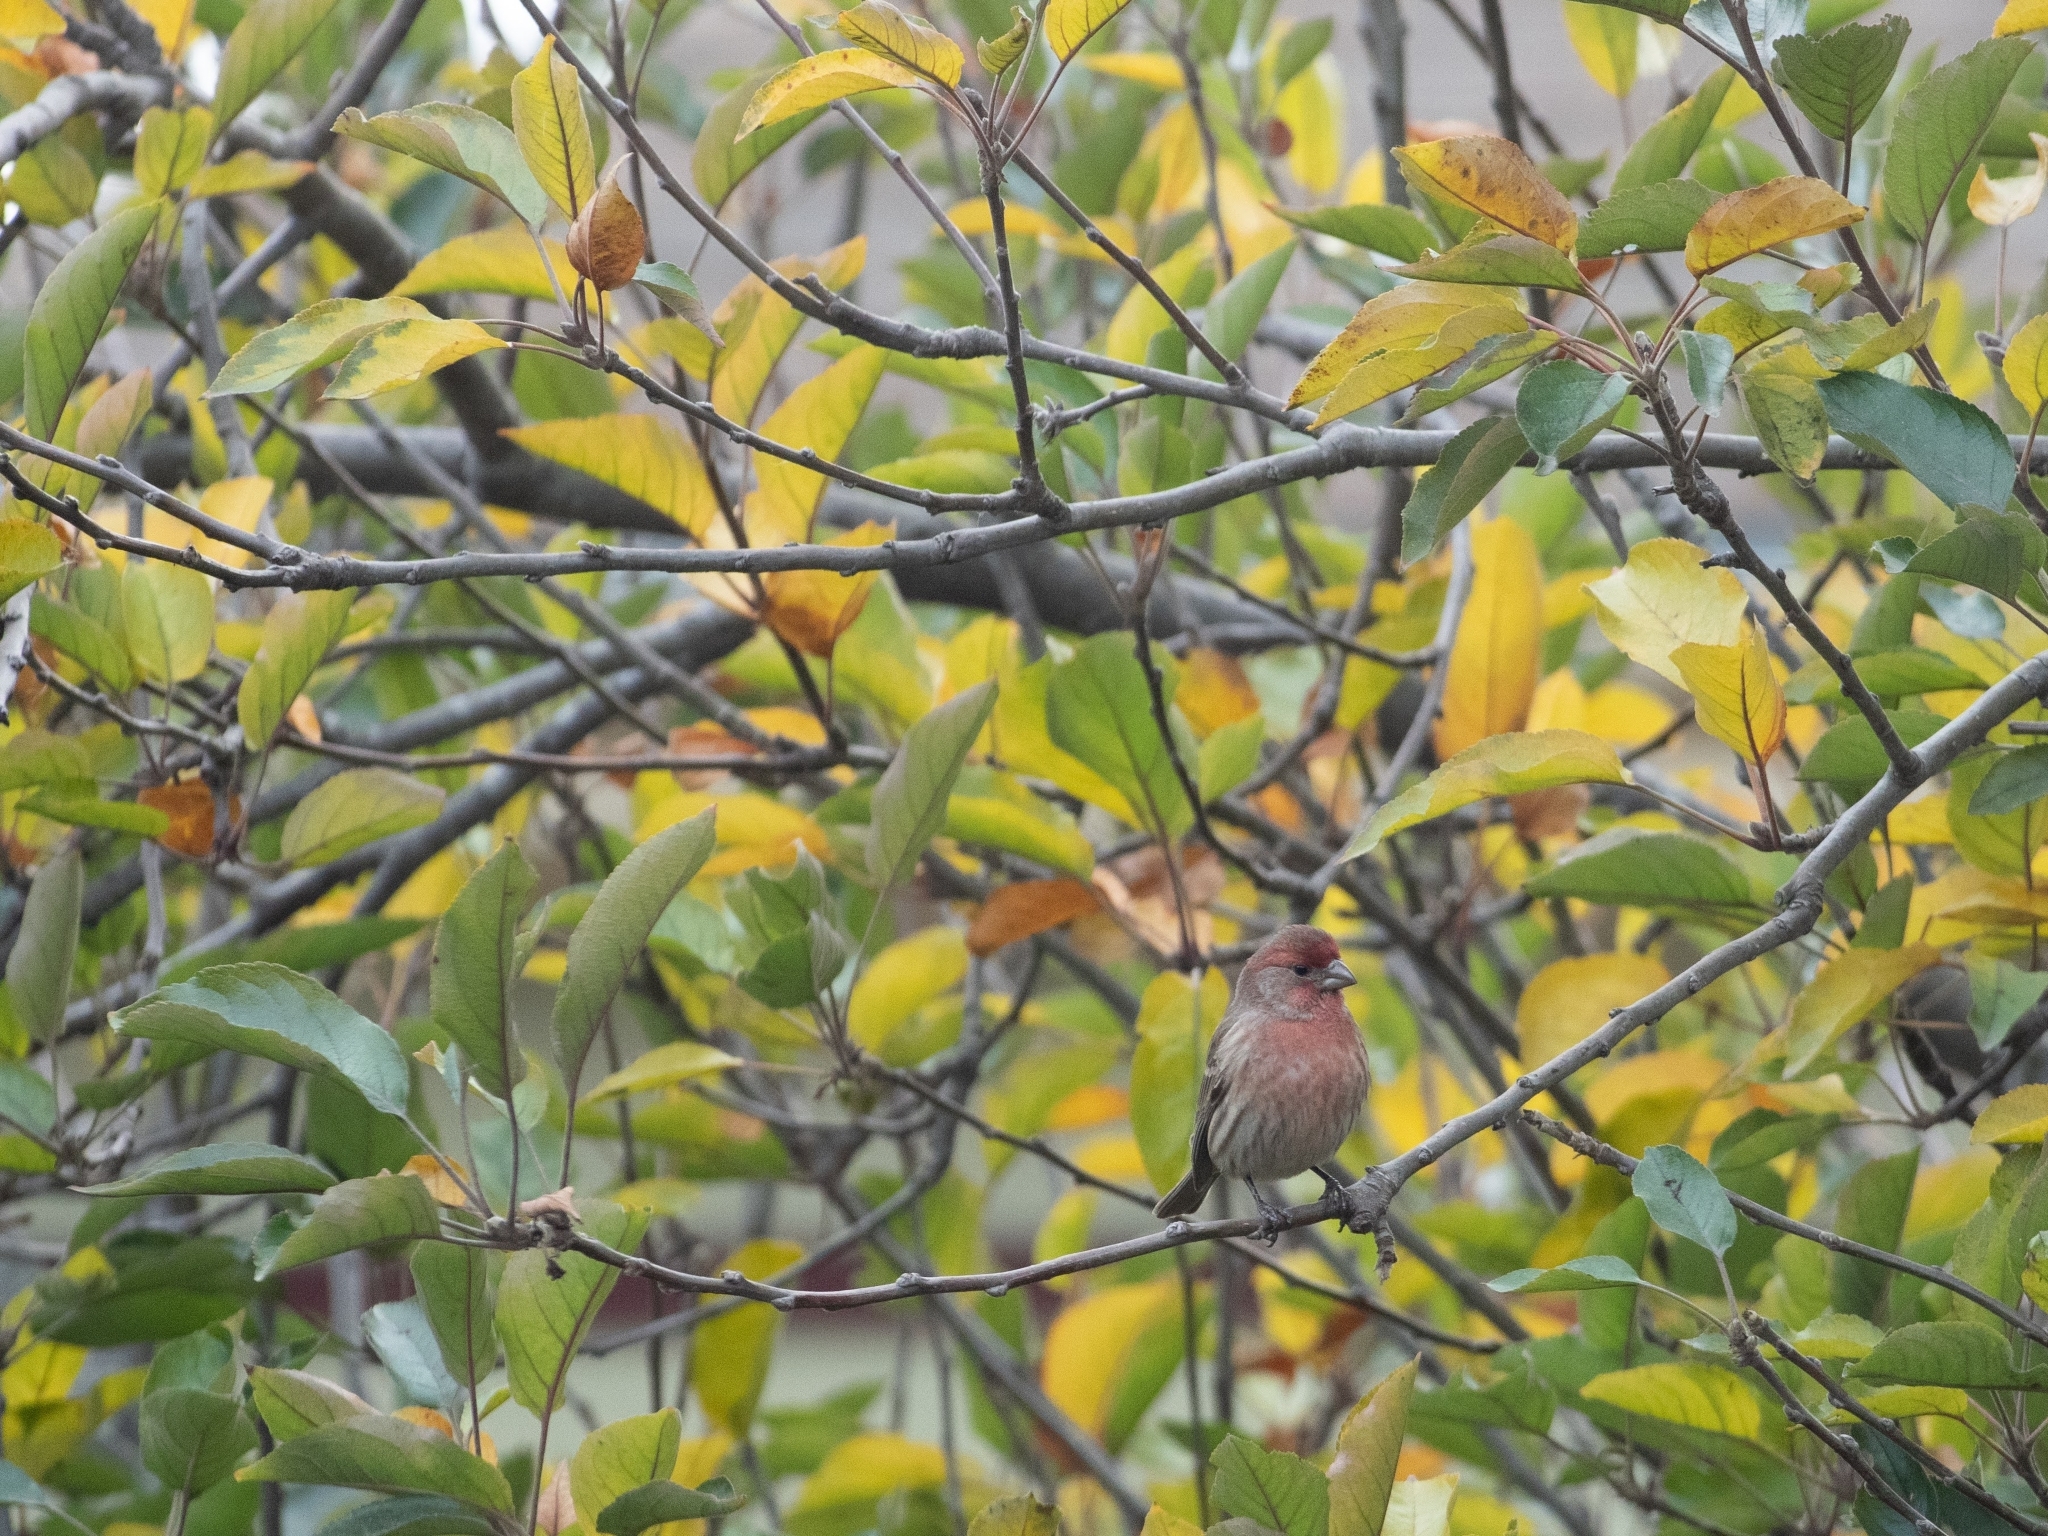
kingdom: Animalia
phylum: Chordata
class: Aves
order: Passeriformes
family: Fringillidae
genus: Haemorhous
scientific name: Haemorhous mexicanus
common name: House finch
